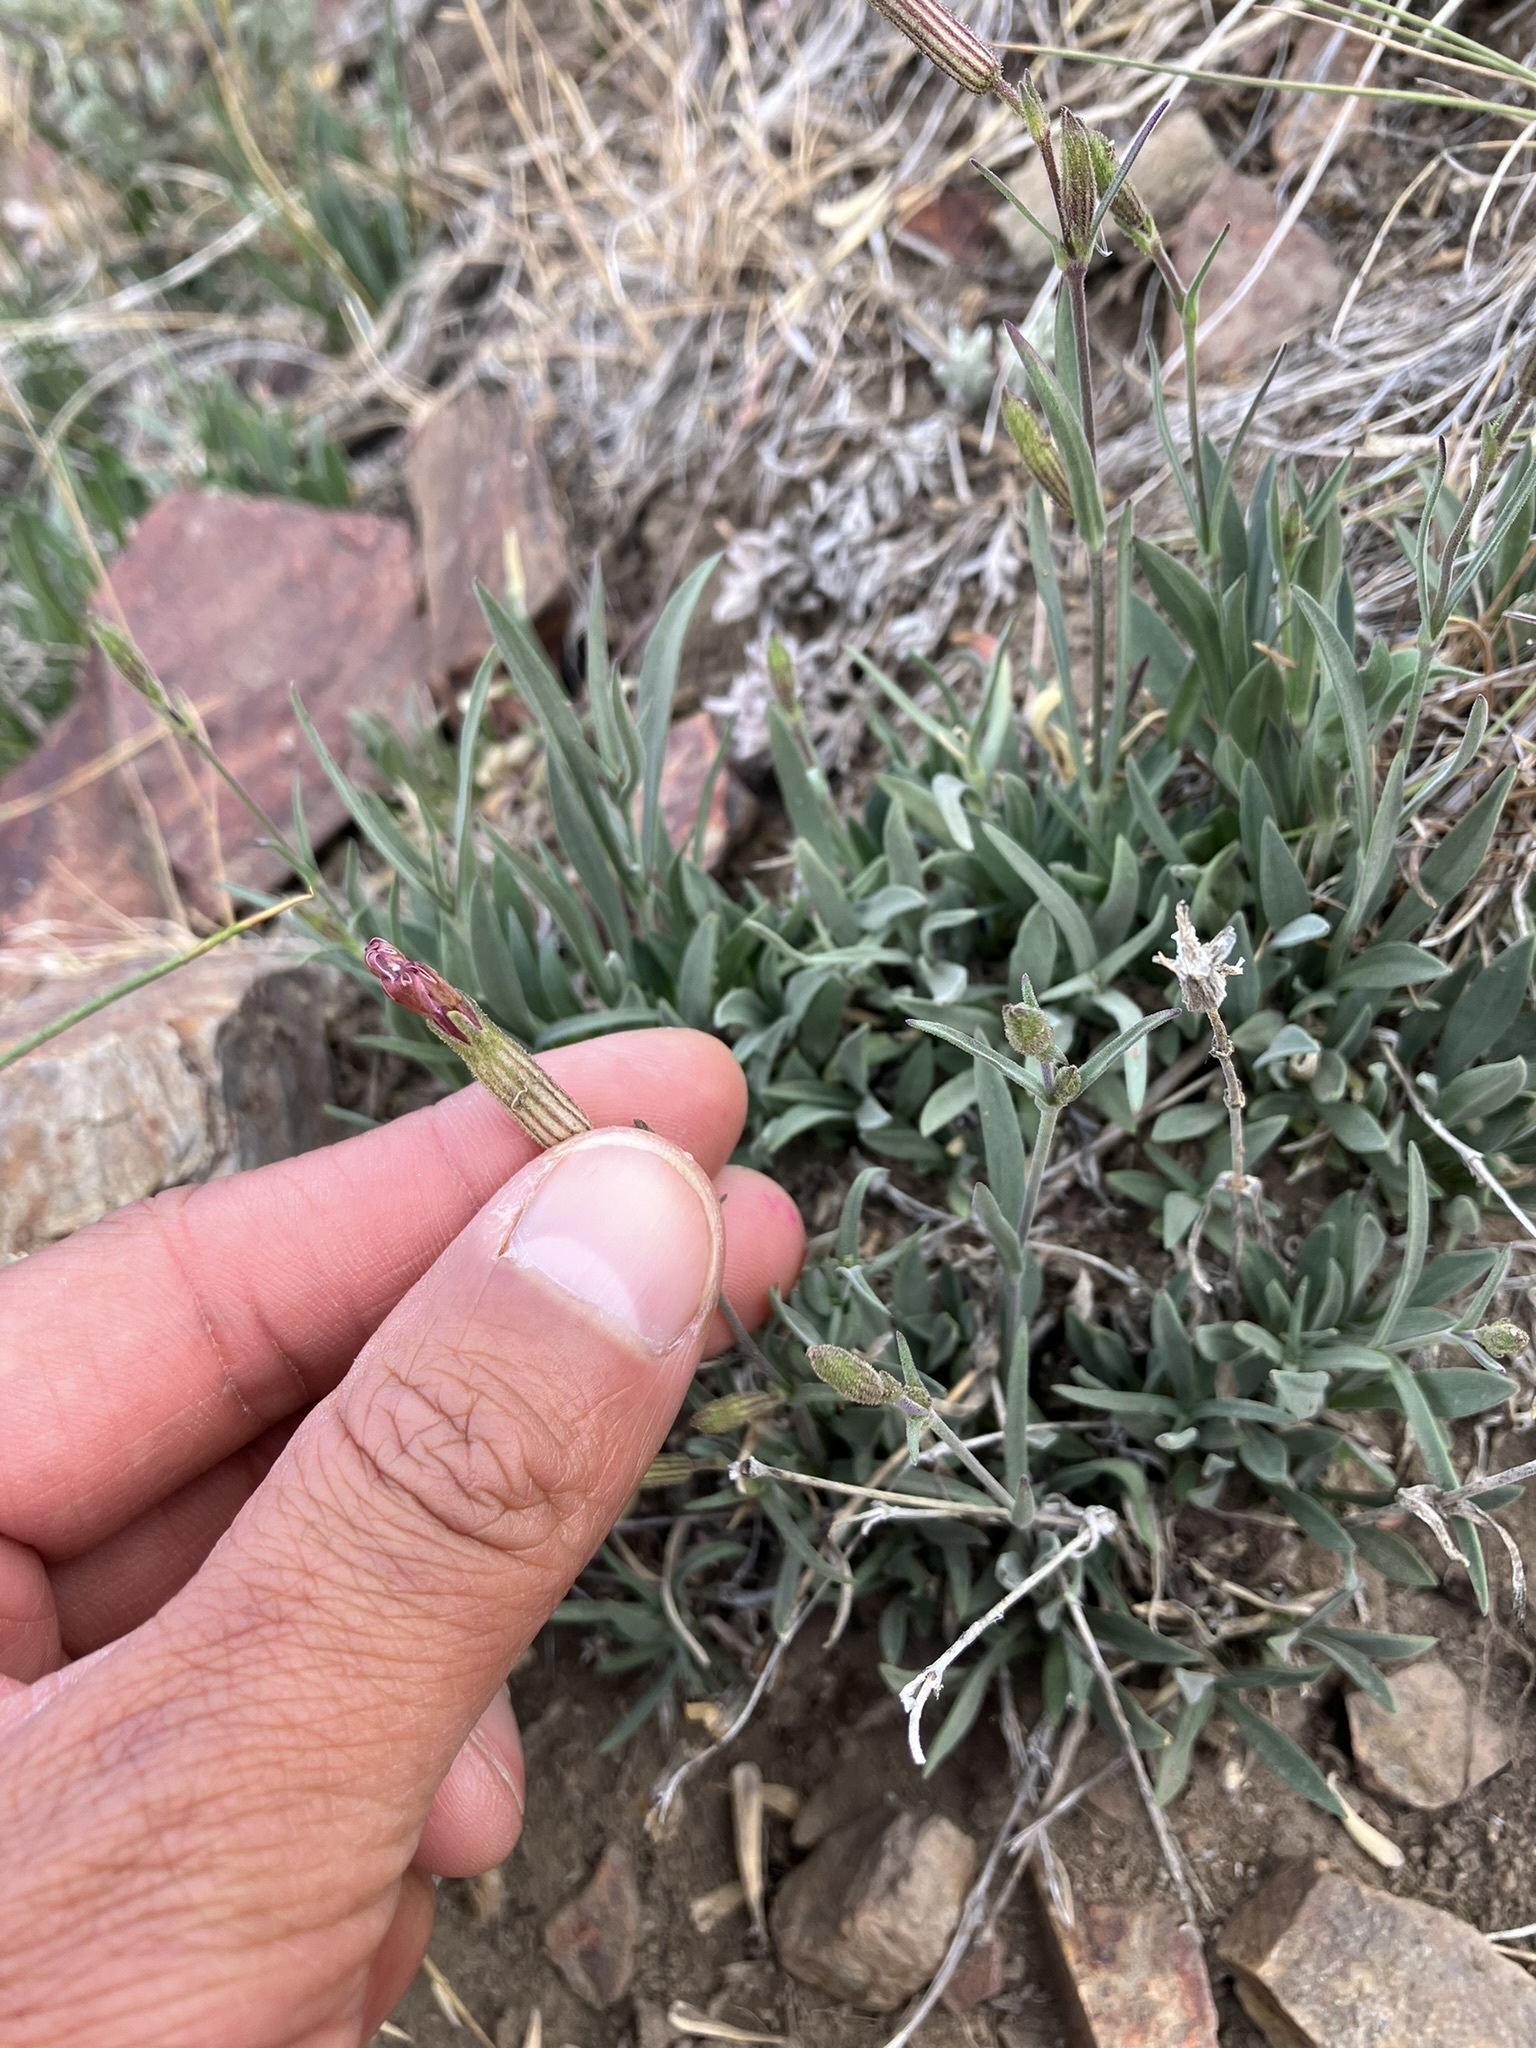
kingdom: Plantae
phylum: Tracheophyta
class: Magnoliopsida
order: Caryophyllales
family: Caryophyllaceae
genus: Silene
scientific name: Silene bernardina
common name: Palmer's catchfly
